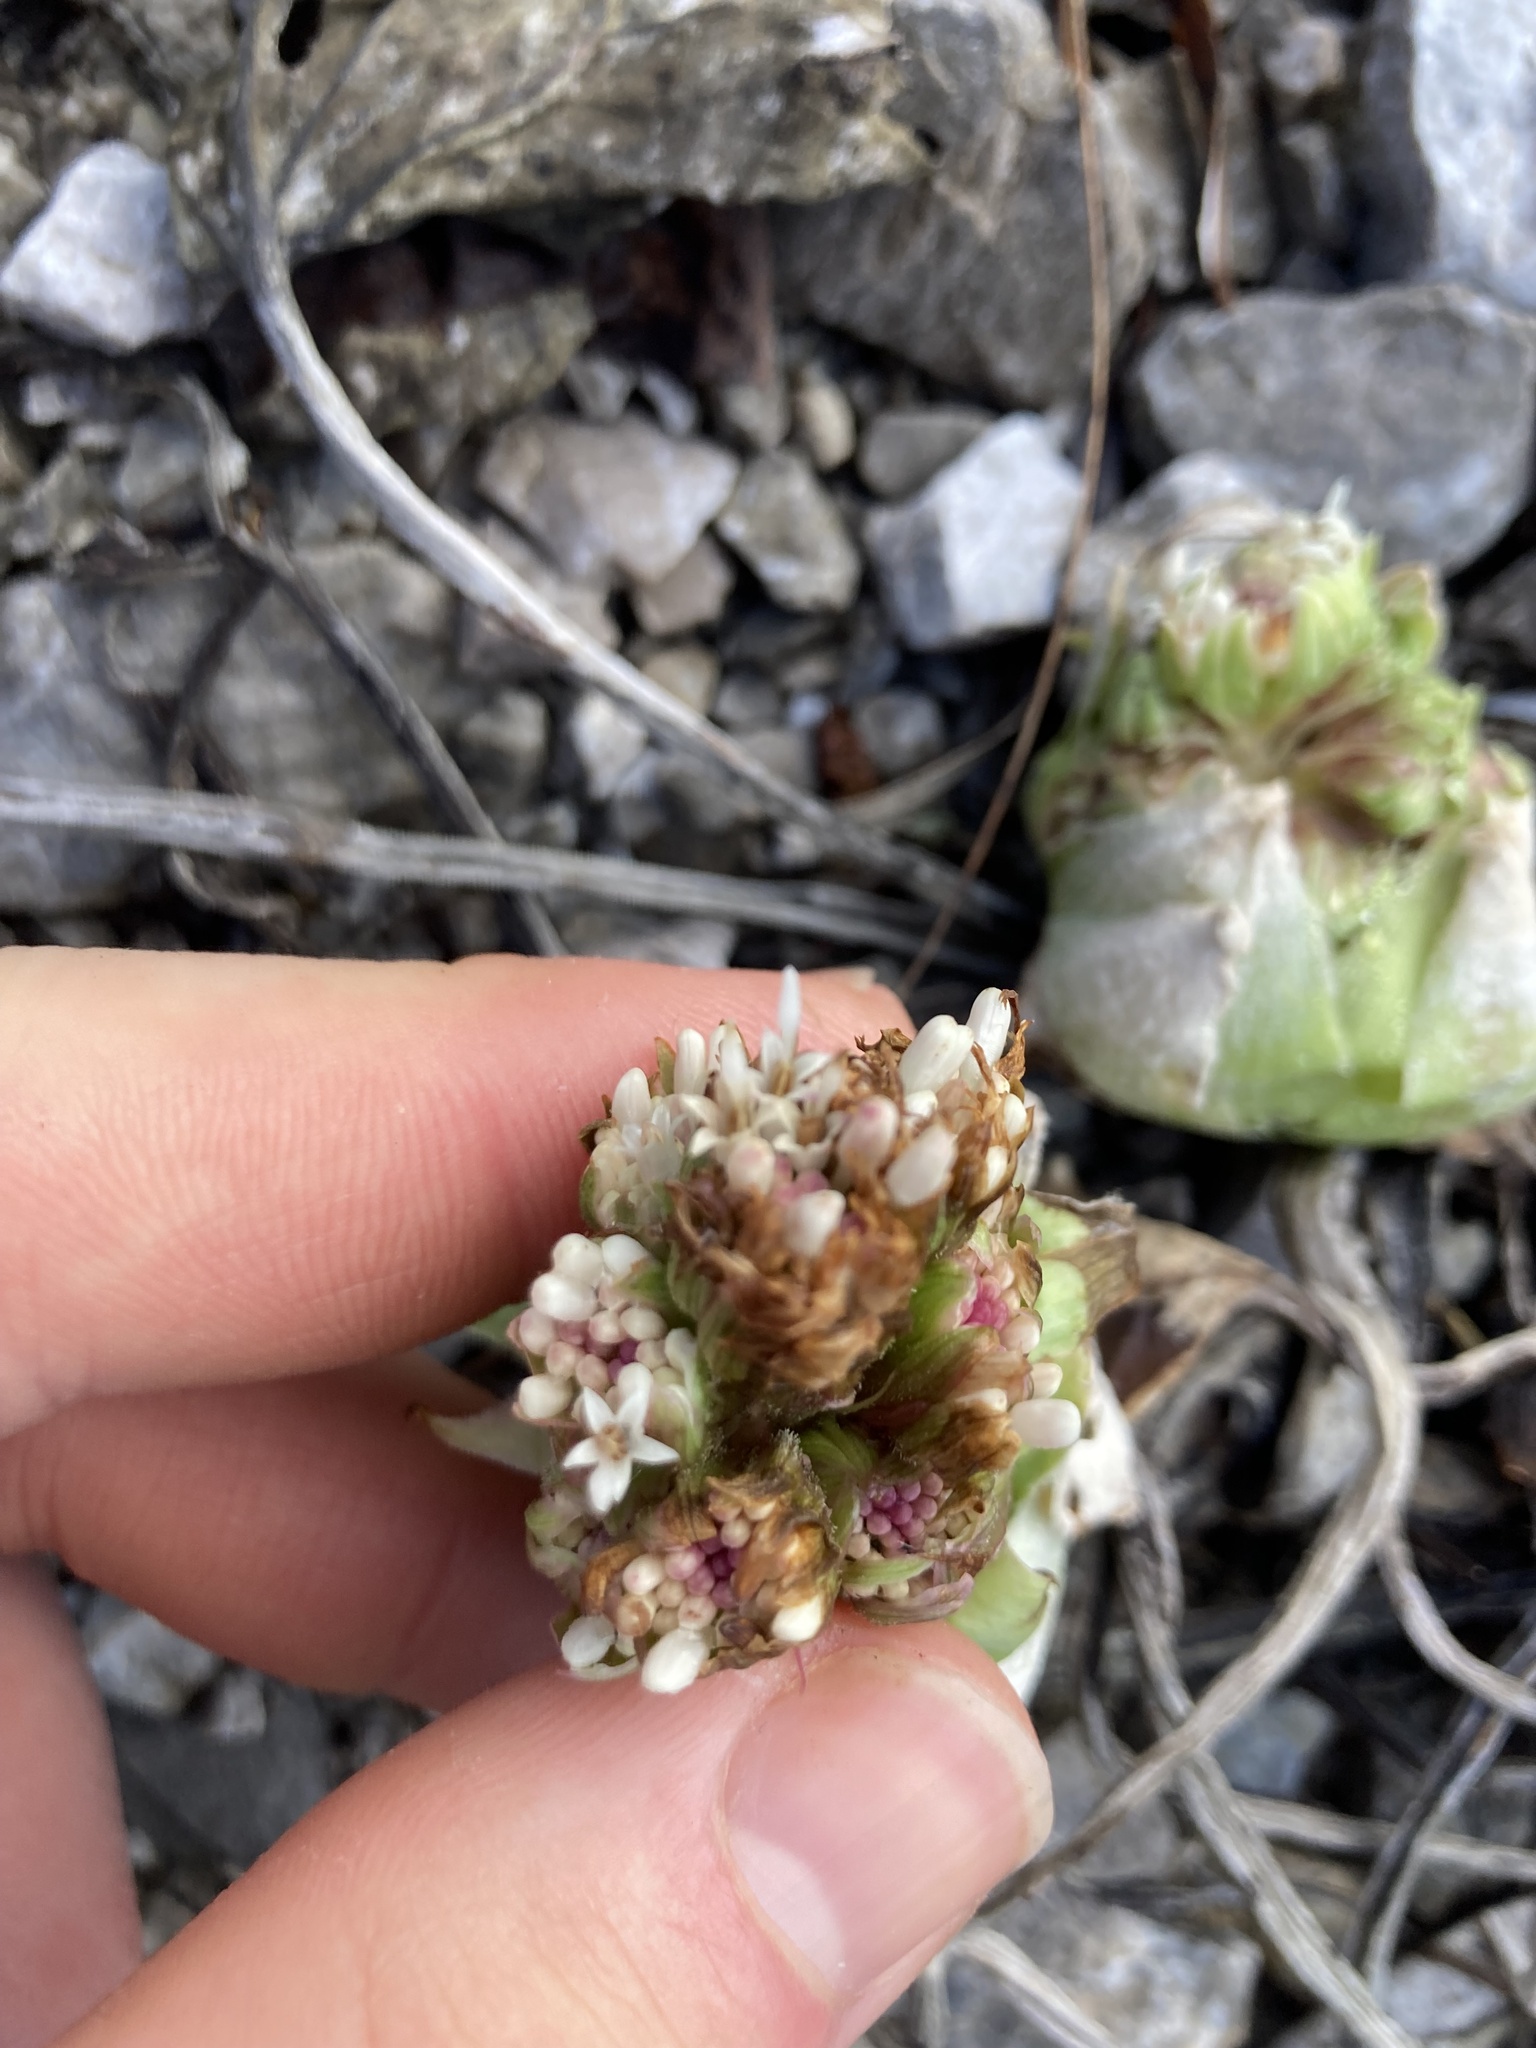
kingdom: Plantae
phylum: Tracheophyta
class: Magnoliopsida
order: Asterales
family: Asteraceae
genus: Petasites
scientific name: Petasites albus
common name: White butterbur
